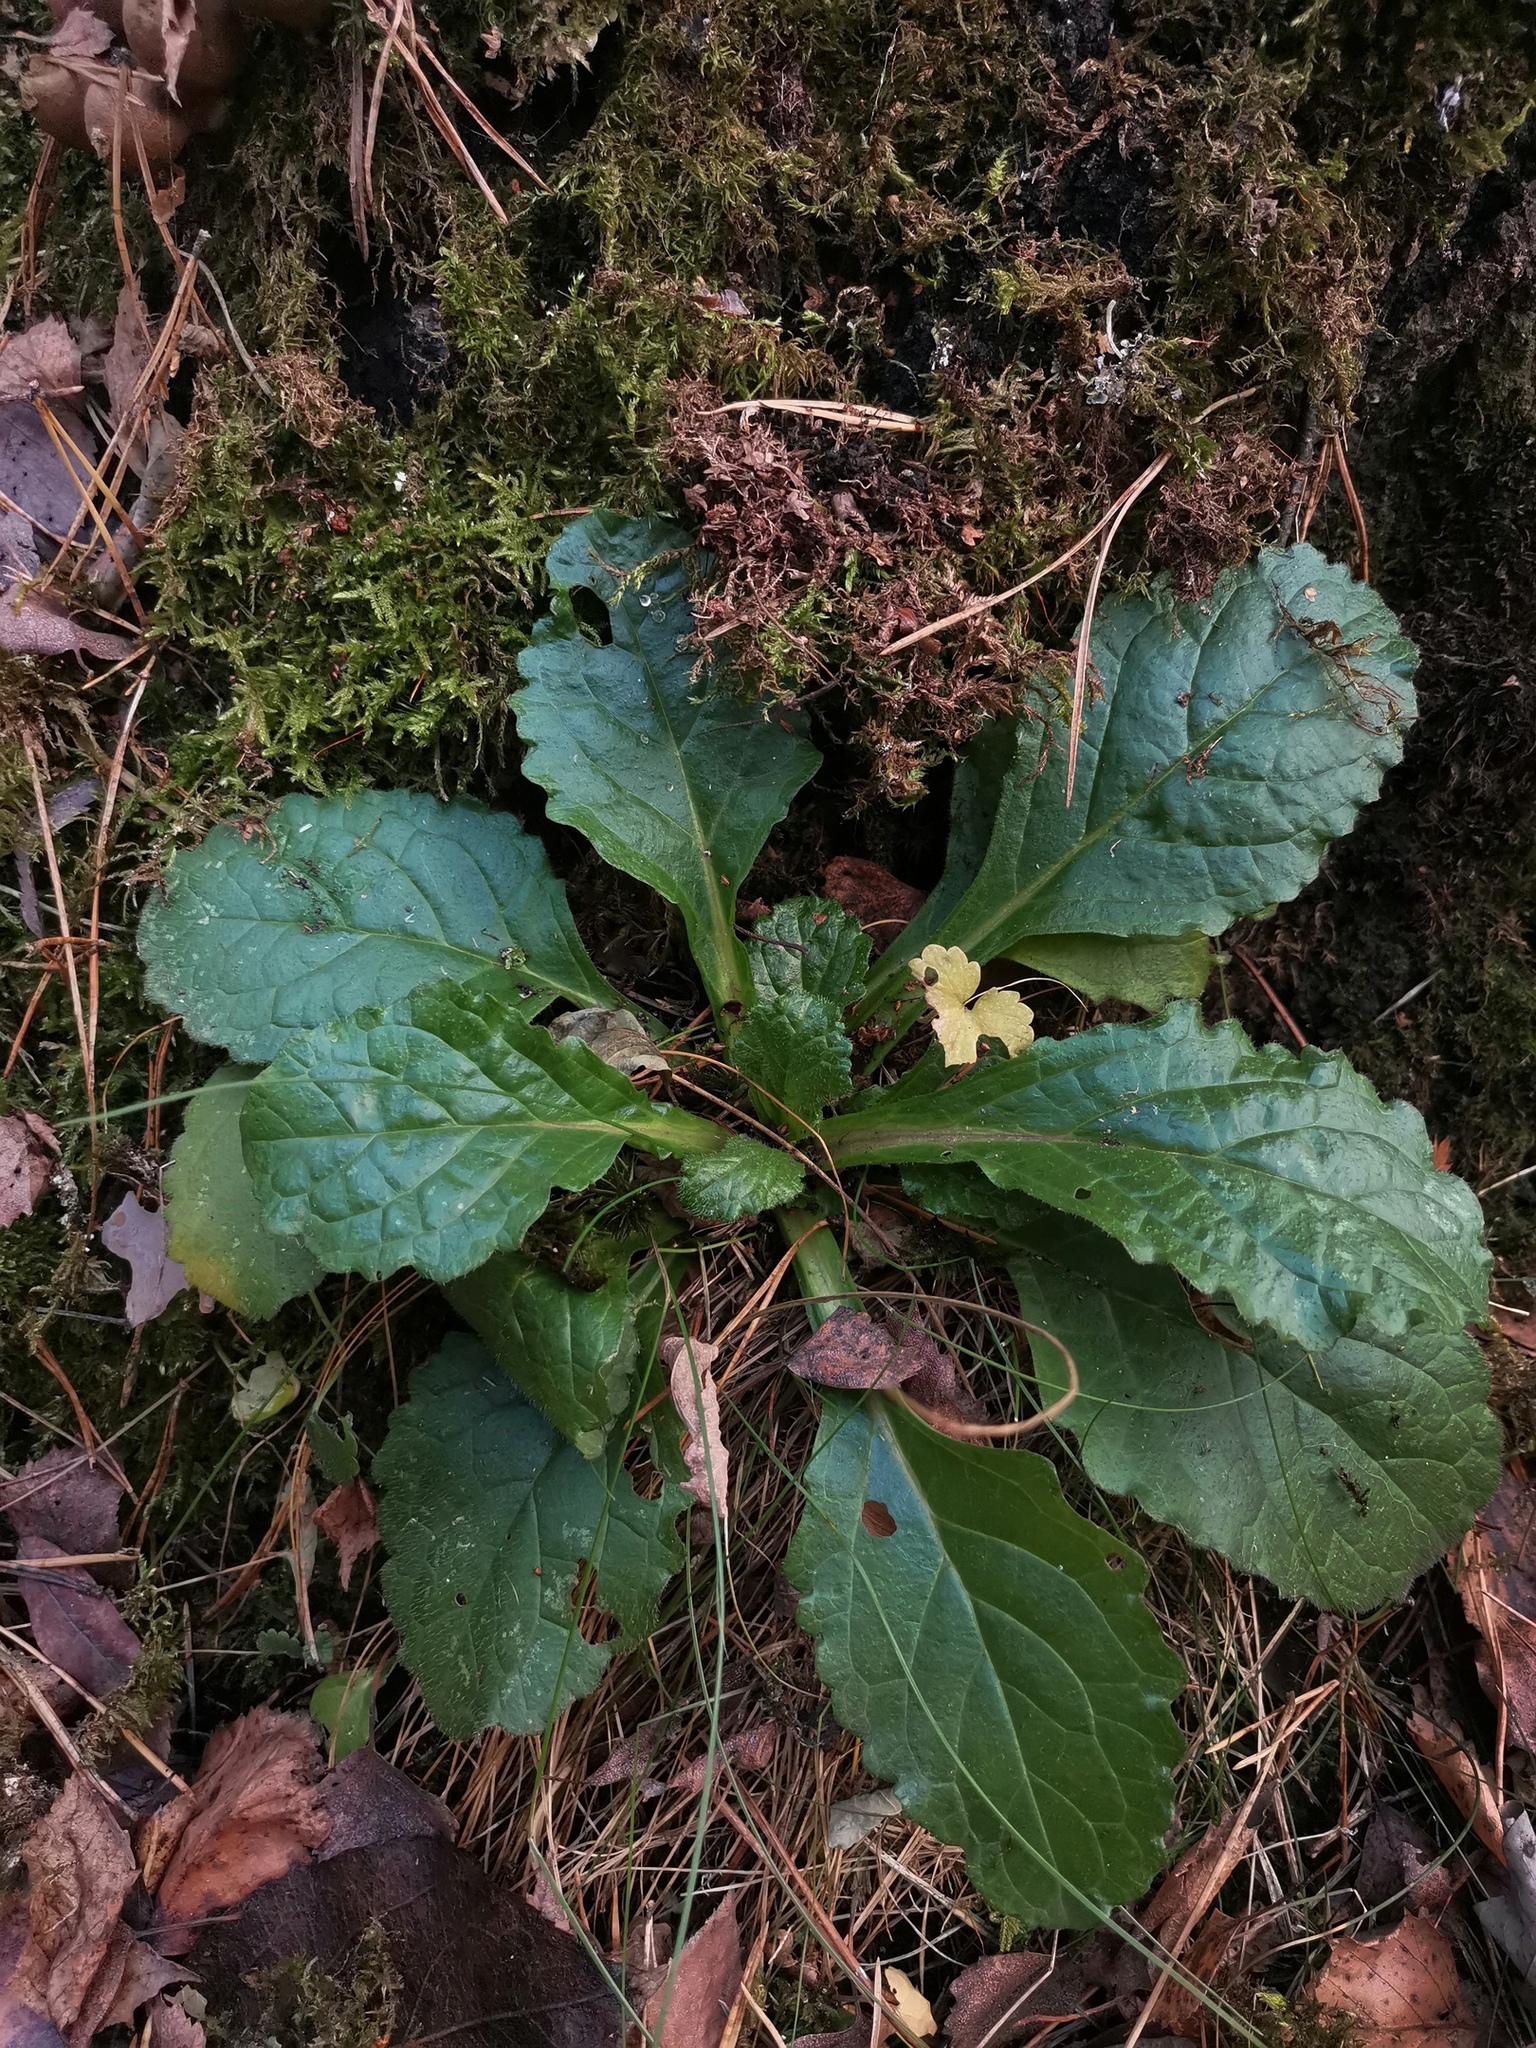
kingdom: Plantae
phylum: Tracheophyta
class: Magnoliopsida
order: Lamiales
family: Lamiaceae
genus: Ajuga
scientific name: Ajuga reptans
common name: Bugle
